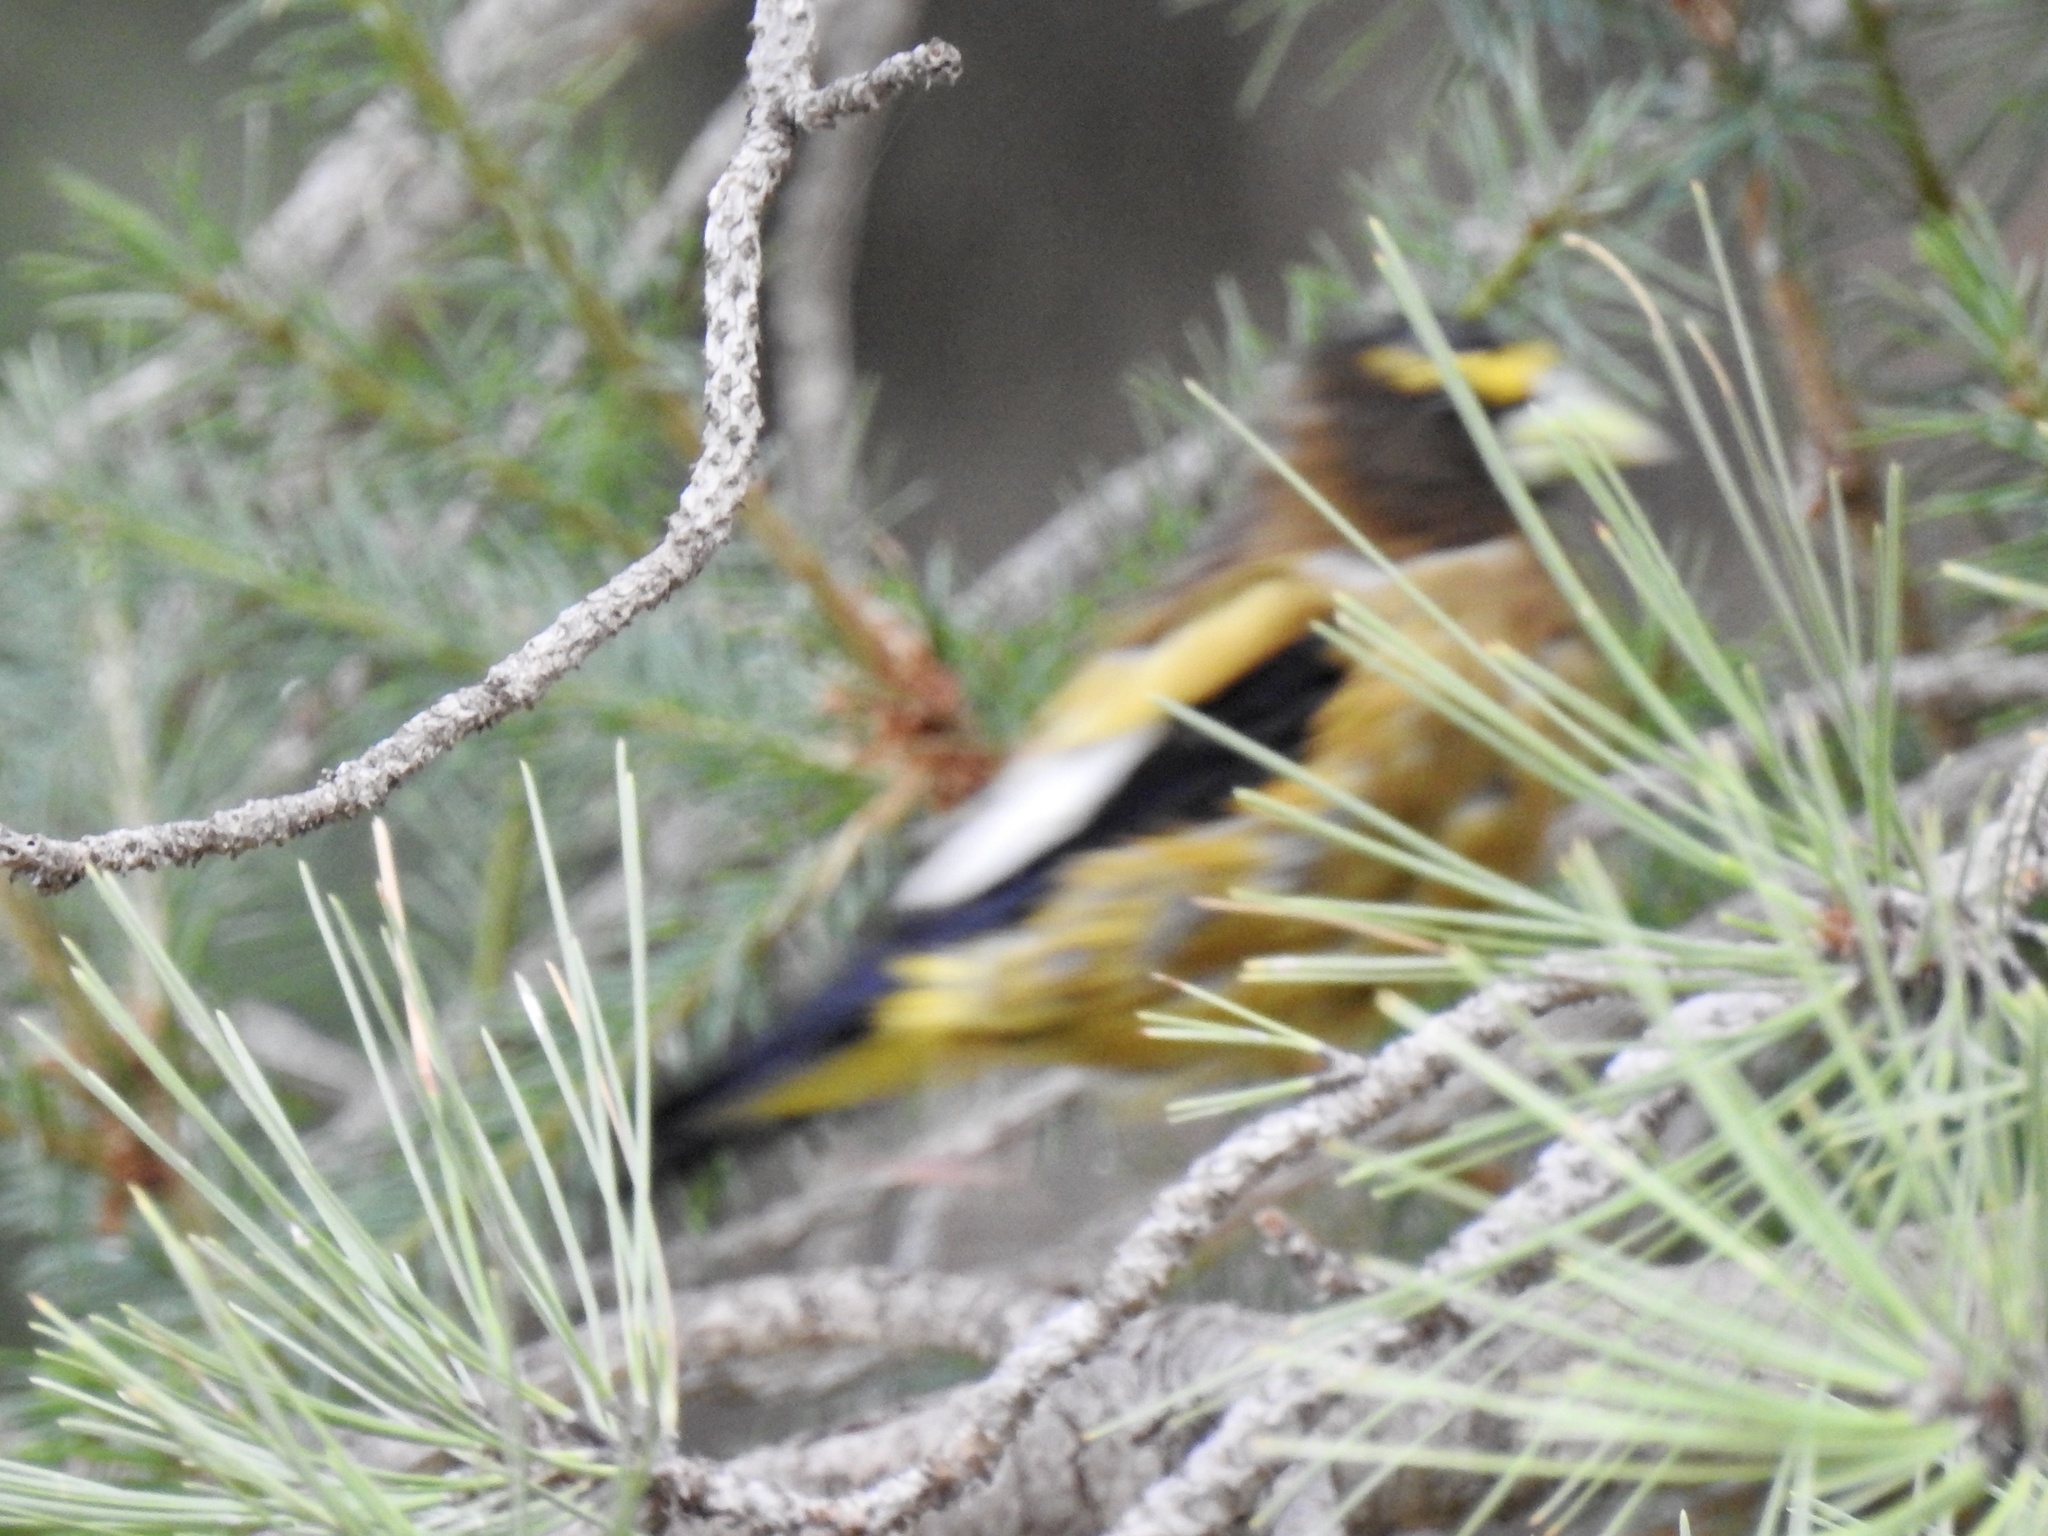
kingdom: Animalia
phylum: Chordata
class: Aves
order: Passeriformes
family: Fringillidae
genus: Hesperiphona
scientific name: Hesperiphona vespertina
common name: Evening grosbeak
